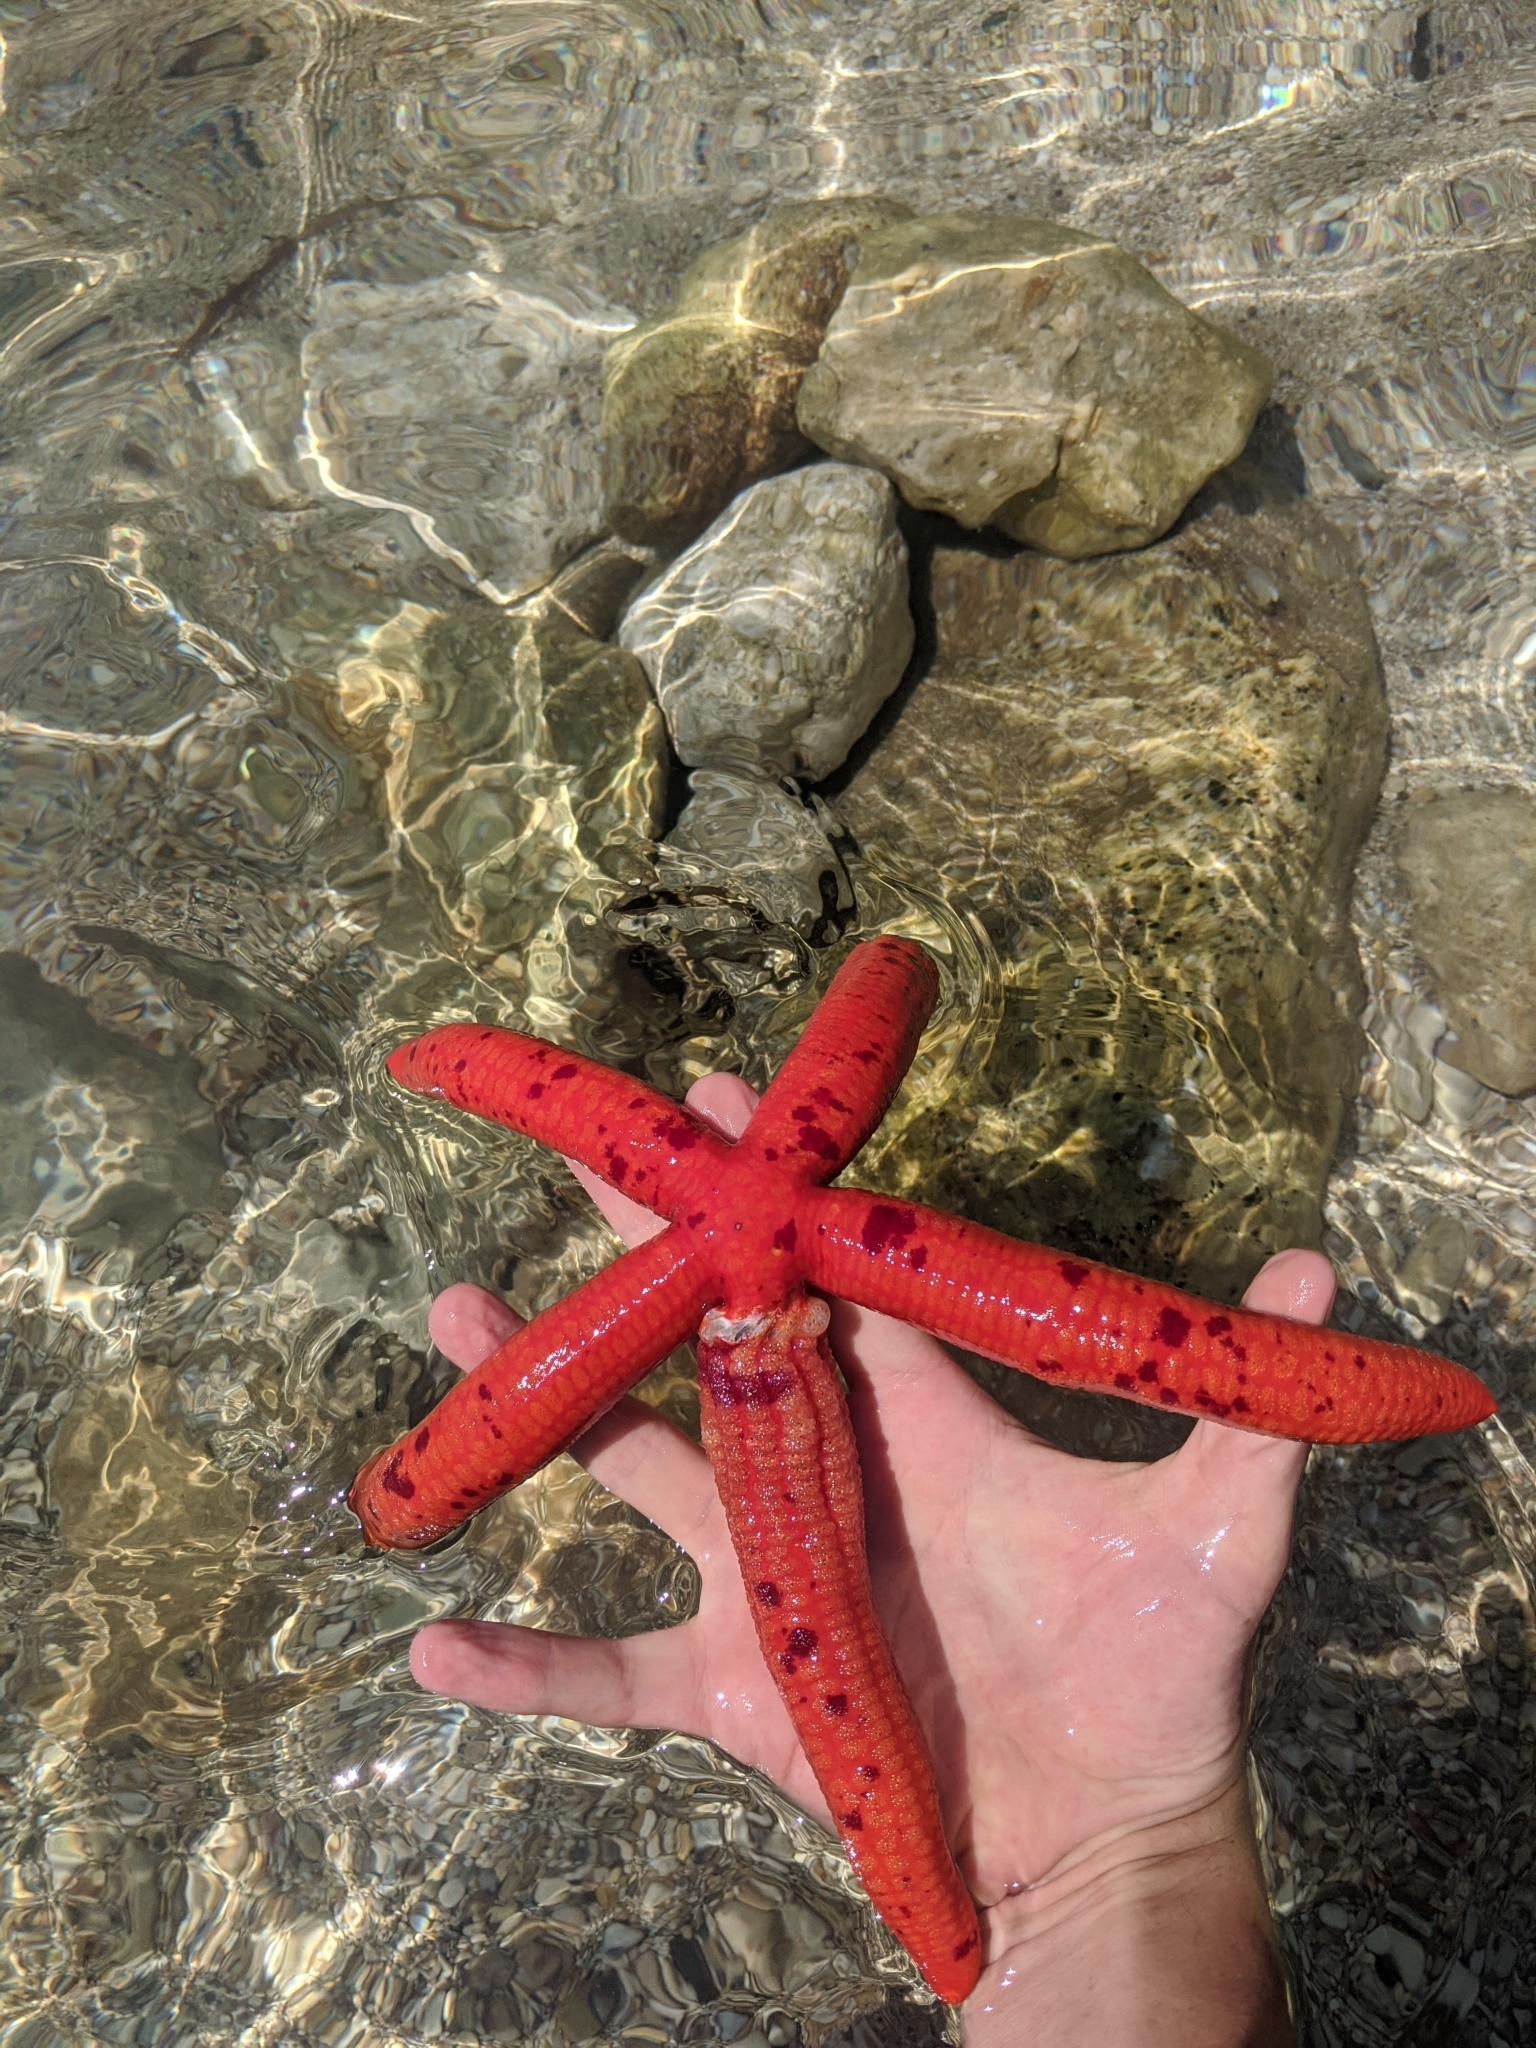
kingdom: Animalia
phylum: Echinodermata
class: Asteroidea
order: Valvatida
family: Ophidiasteridae
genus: Ophidiaster
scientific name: Ophidiaster ophidianus
